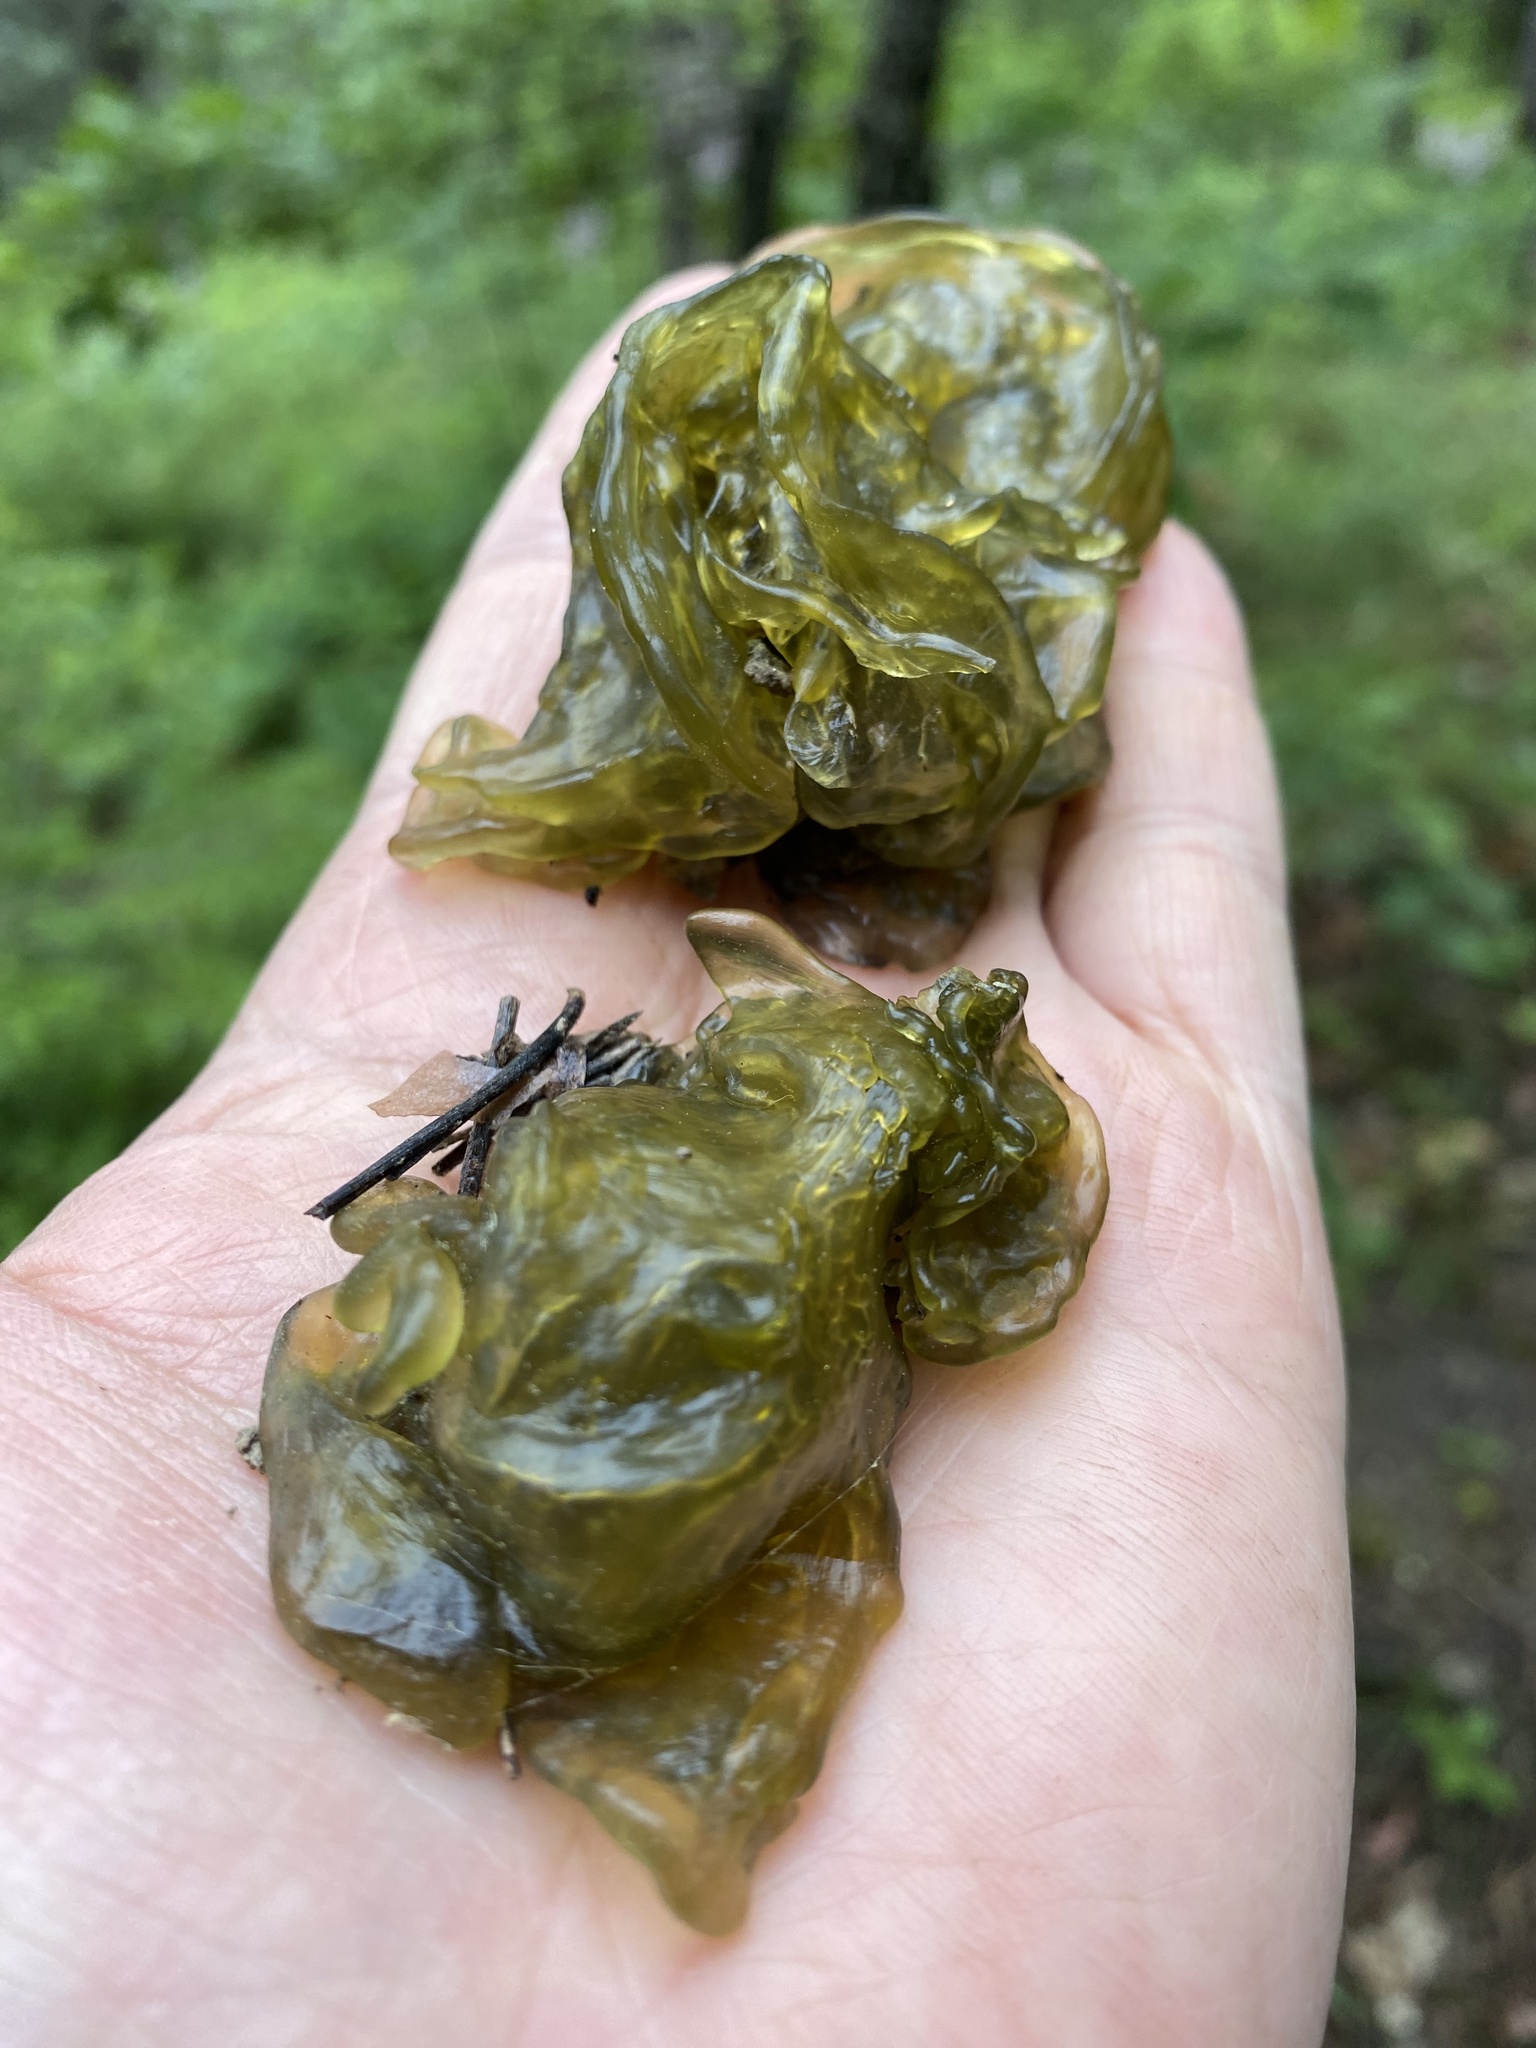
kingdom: Bacteria
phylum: Cyanobacteria
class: Cyanobacteriia
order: Cyanobacteriales
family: Nostocaceae
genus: Nostoc
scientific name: Nostoc commune
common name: Star jelly
